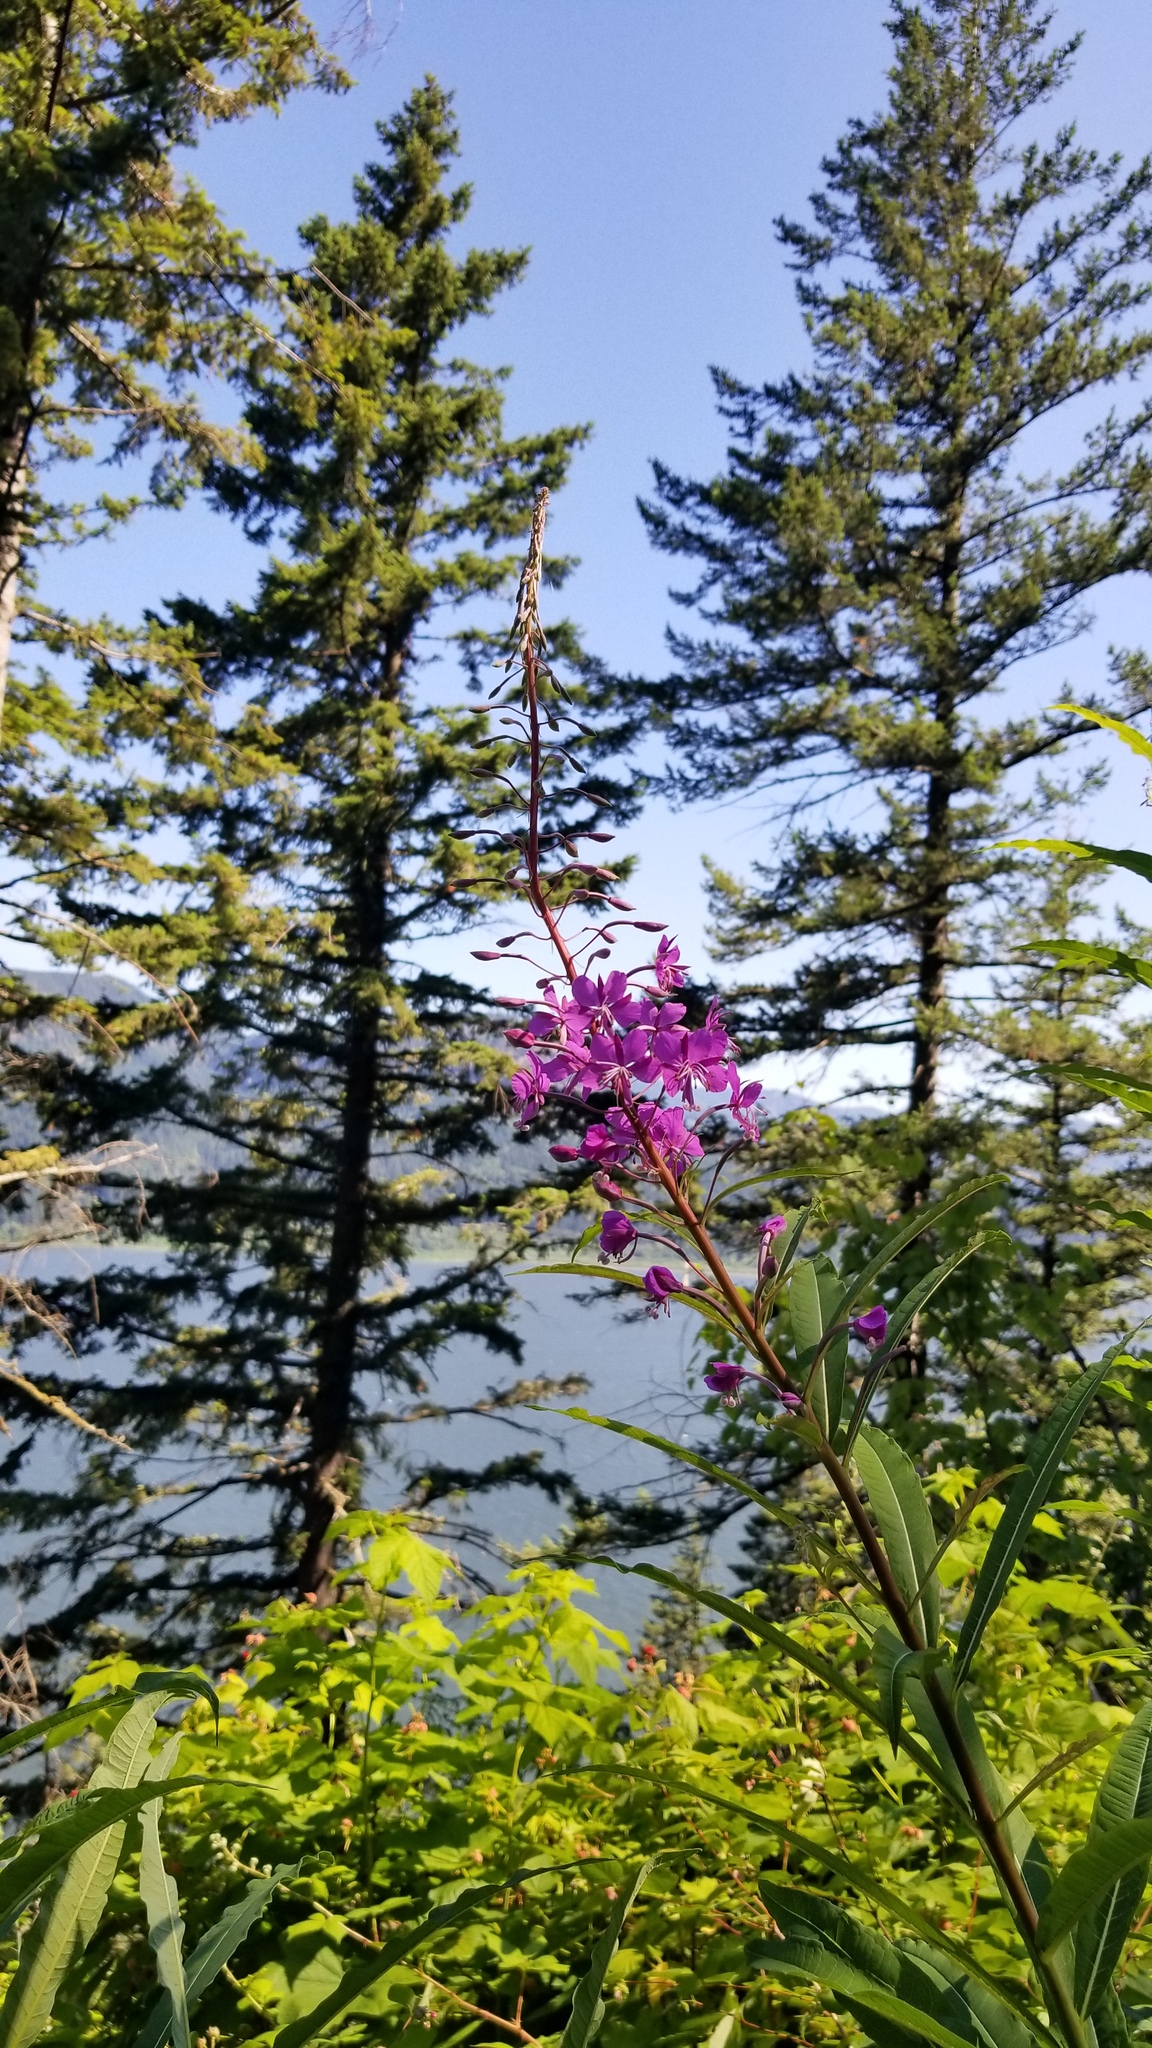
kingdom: Plantae
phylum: Tracheophyta
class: Magnoliopsida
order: Myrtales
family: Onagraceae
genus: Chamaenerion
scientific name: Chamaenerion angustifolium
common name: Fireweed
